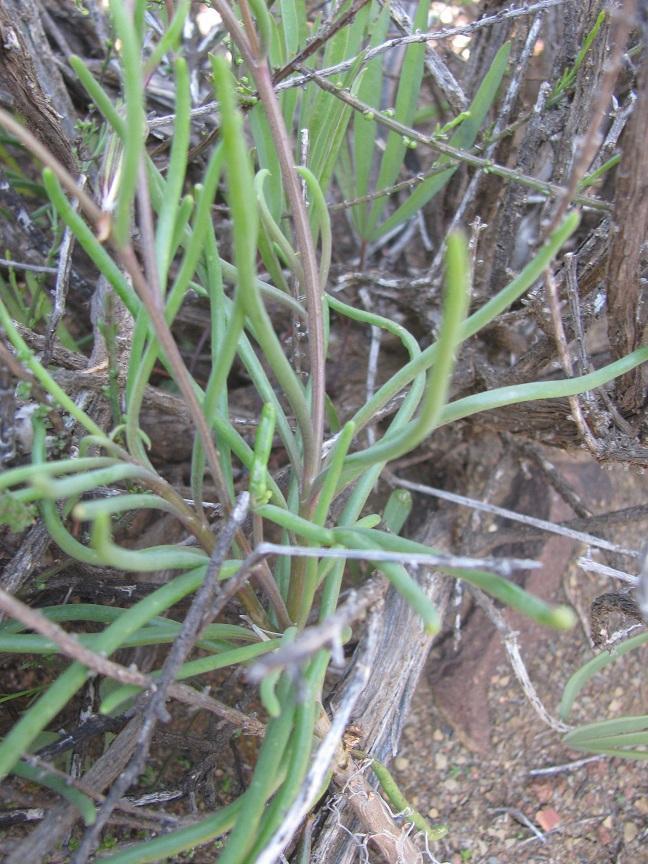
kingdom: Plantae
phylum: Tracheophyta
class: Magnoliopsida
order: Asterales
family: Asteraceae
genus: Crassothonna
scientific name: Crassothonna protecta
